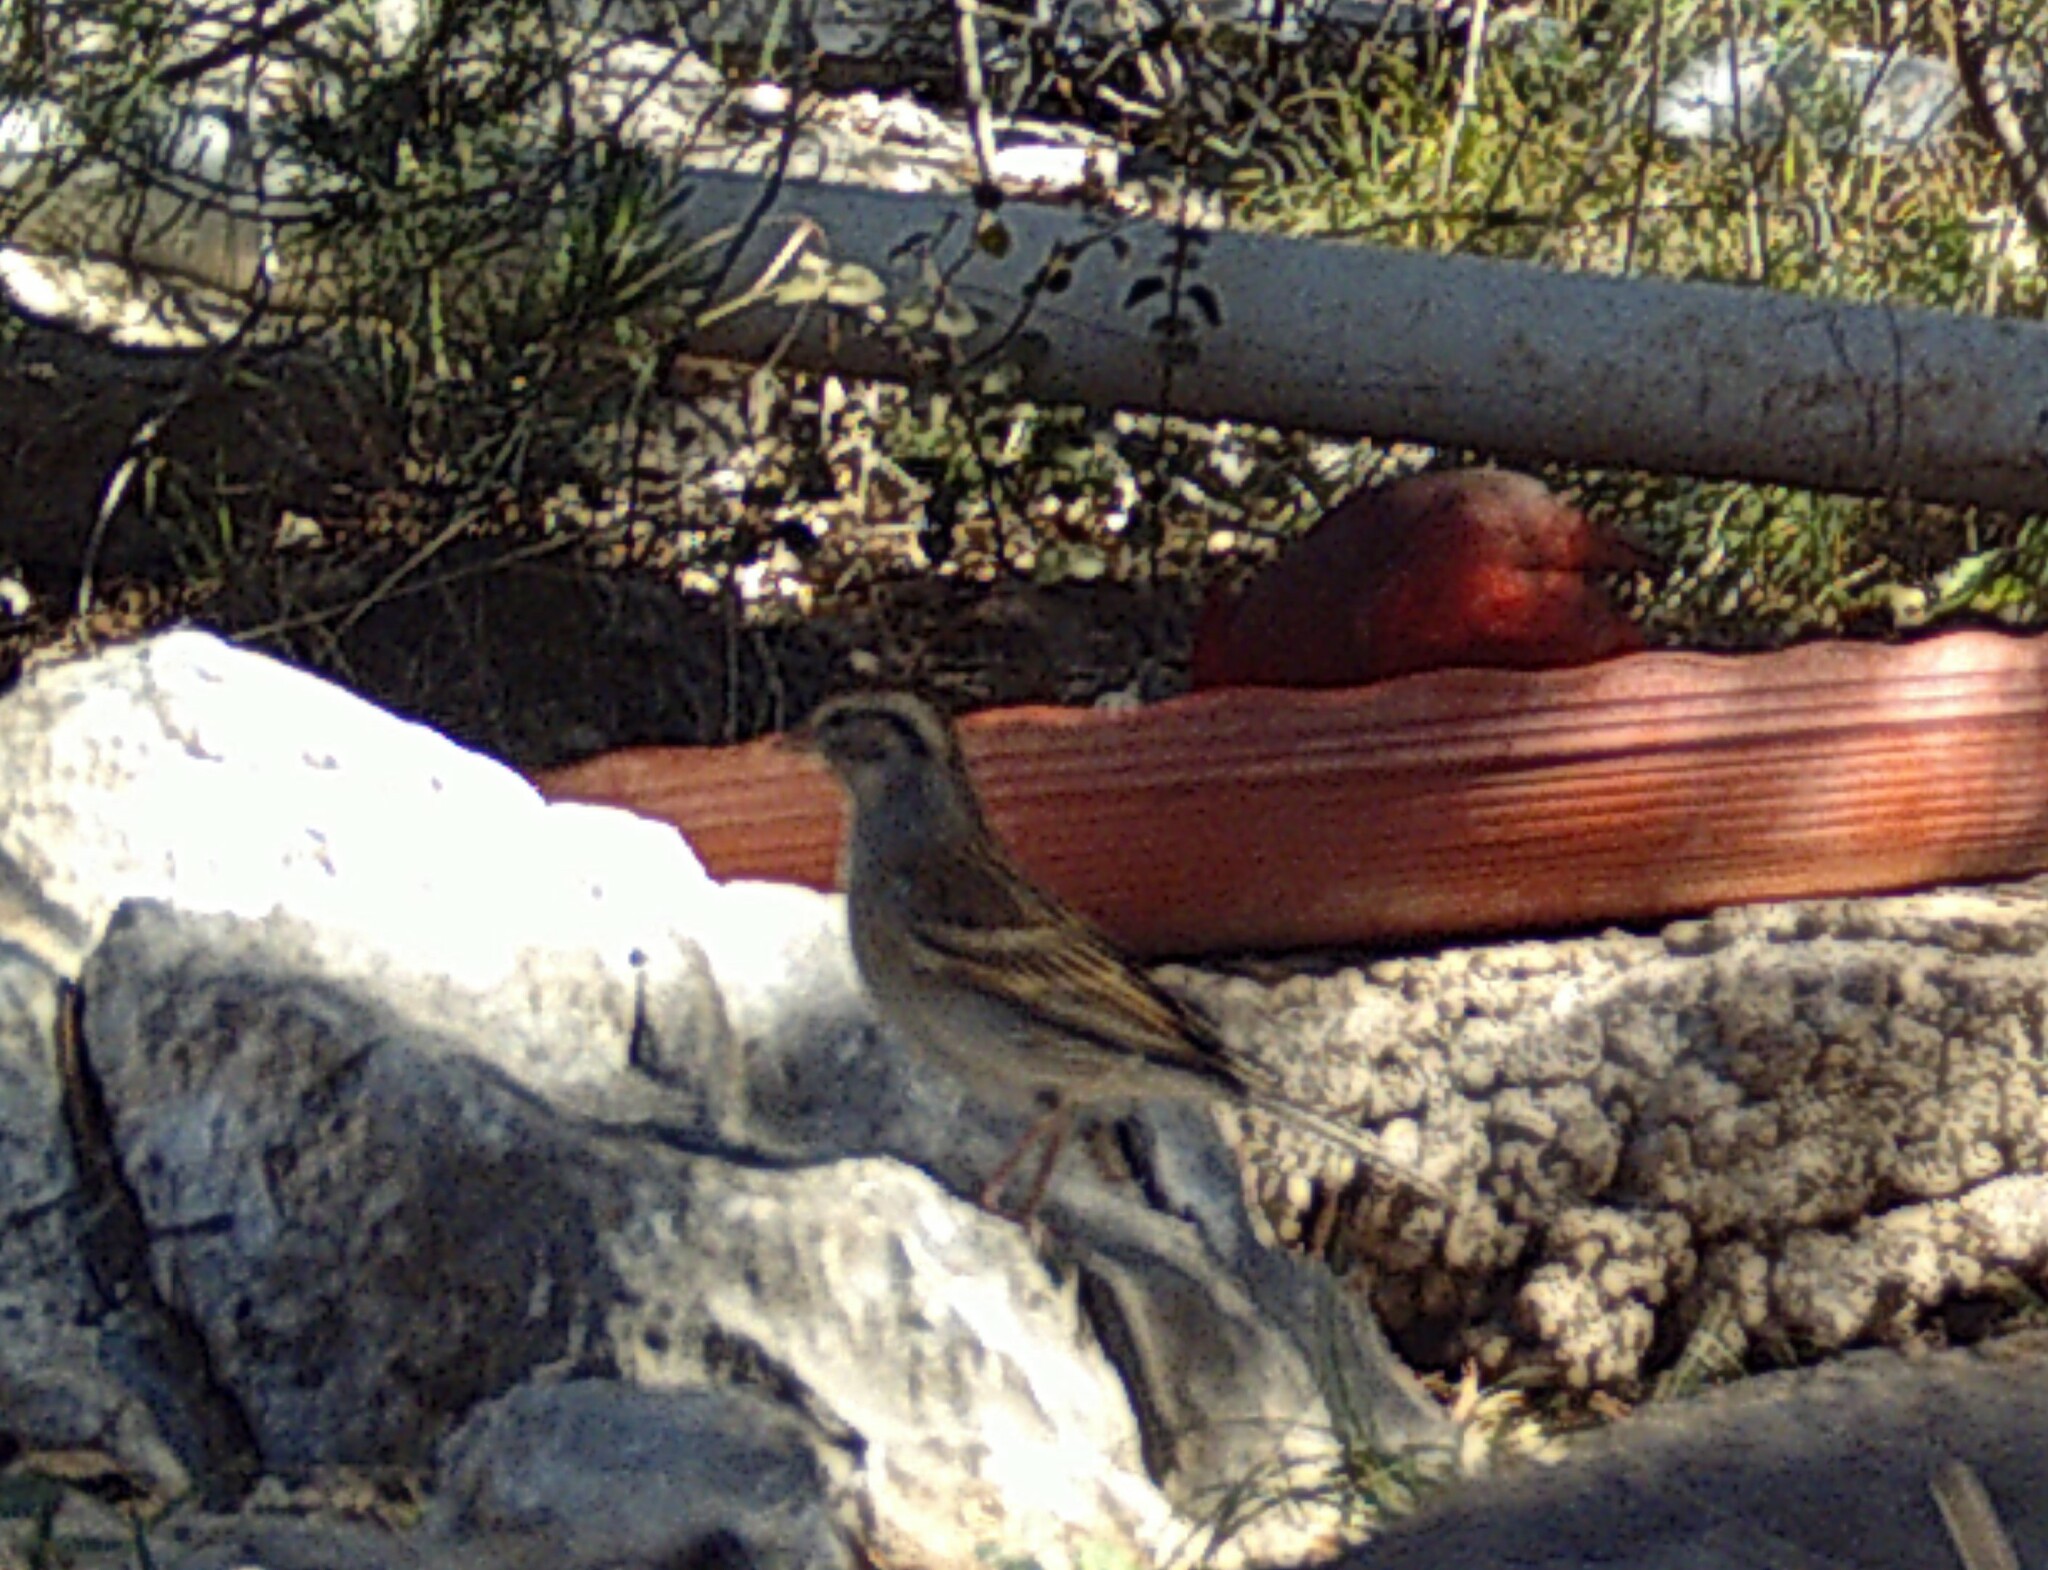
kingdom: Animalia
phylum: Chordata
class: Aves
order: Passeriformes
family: Passerellidae
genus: Spizella
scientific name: Spizella passerina
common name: Chipping sparrow
